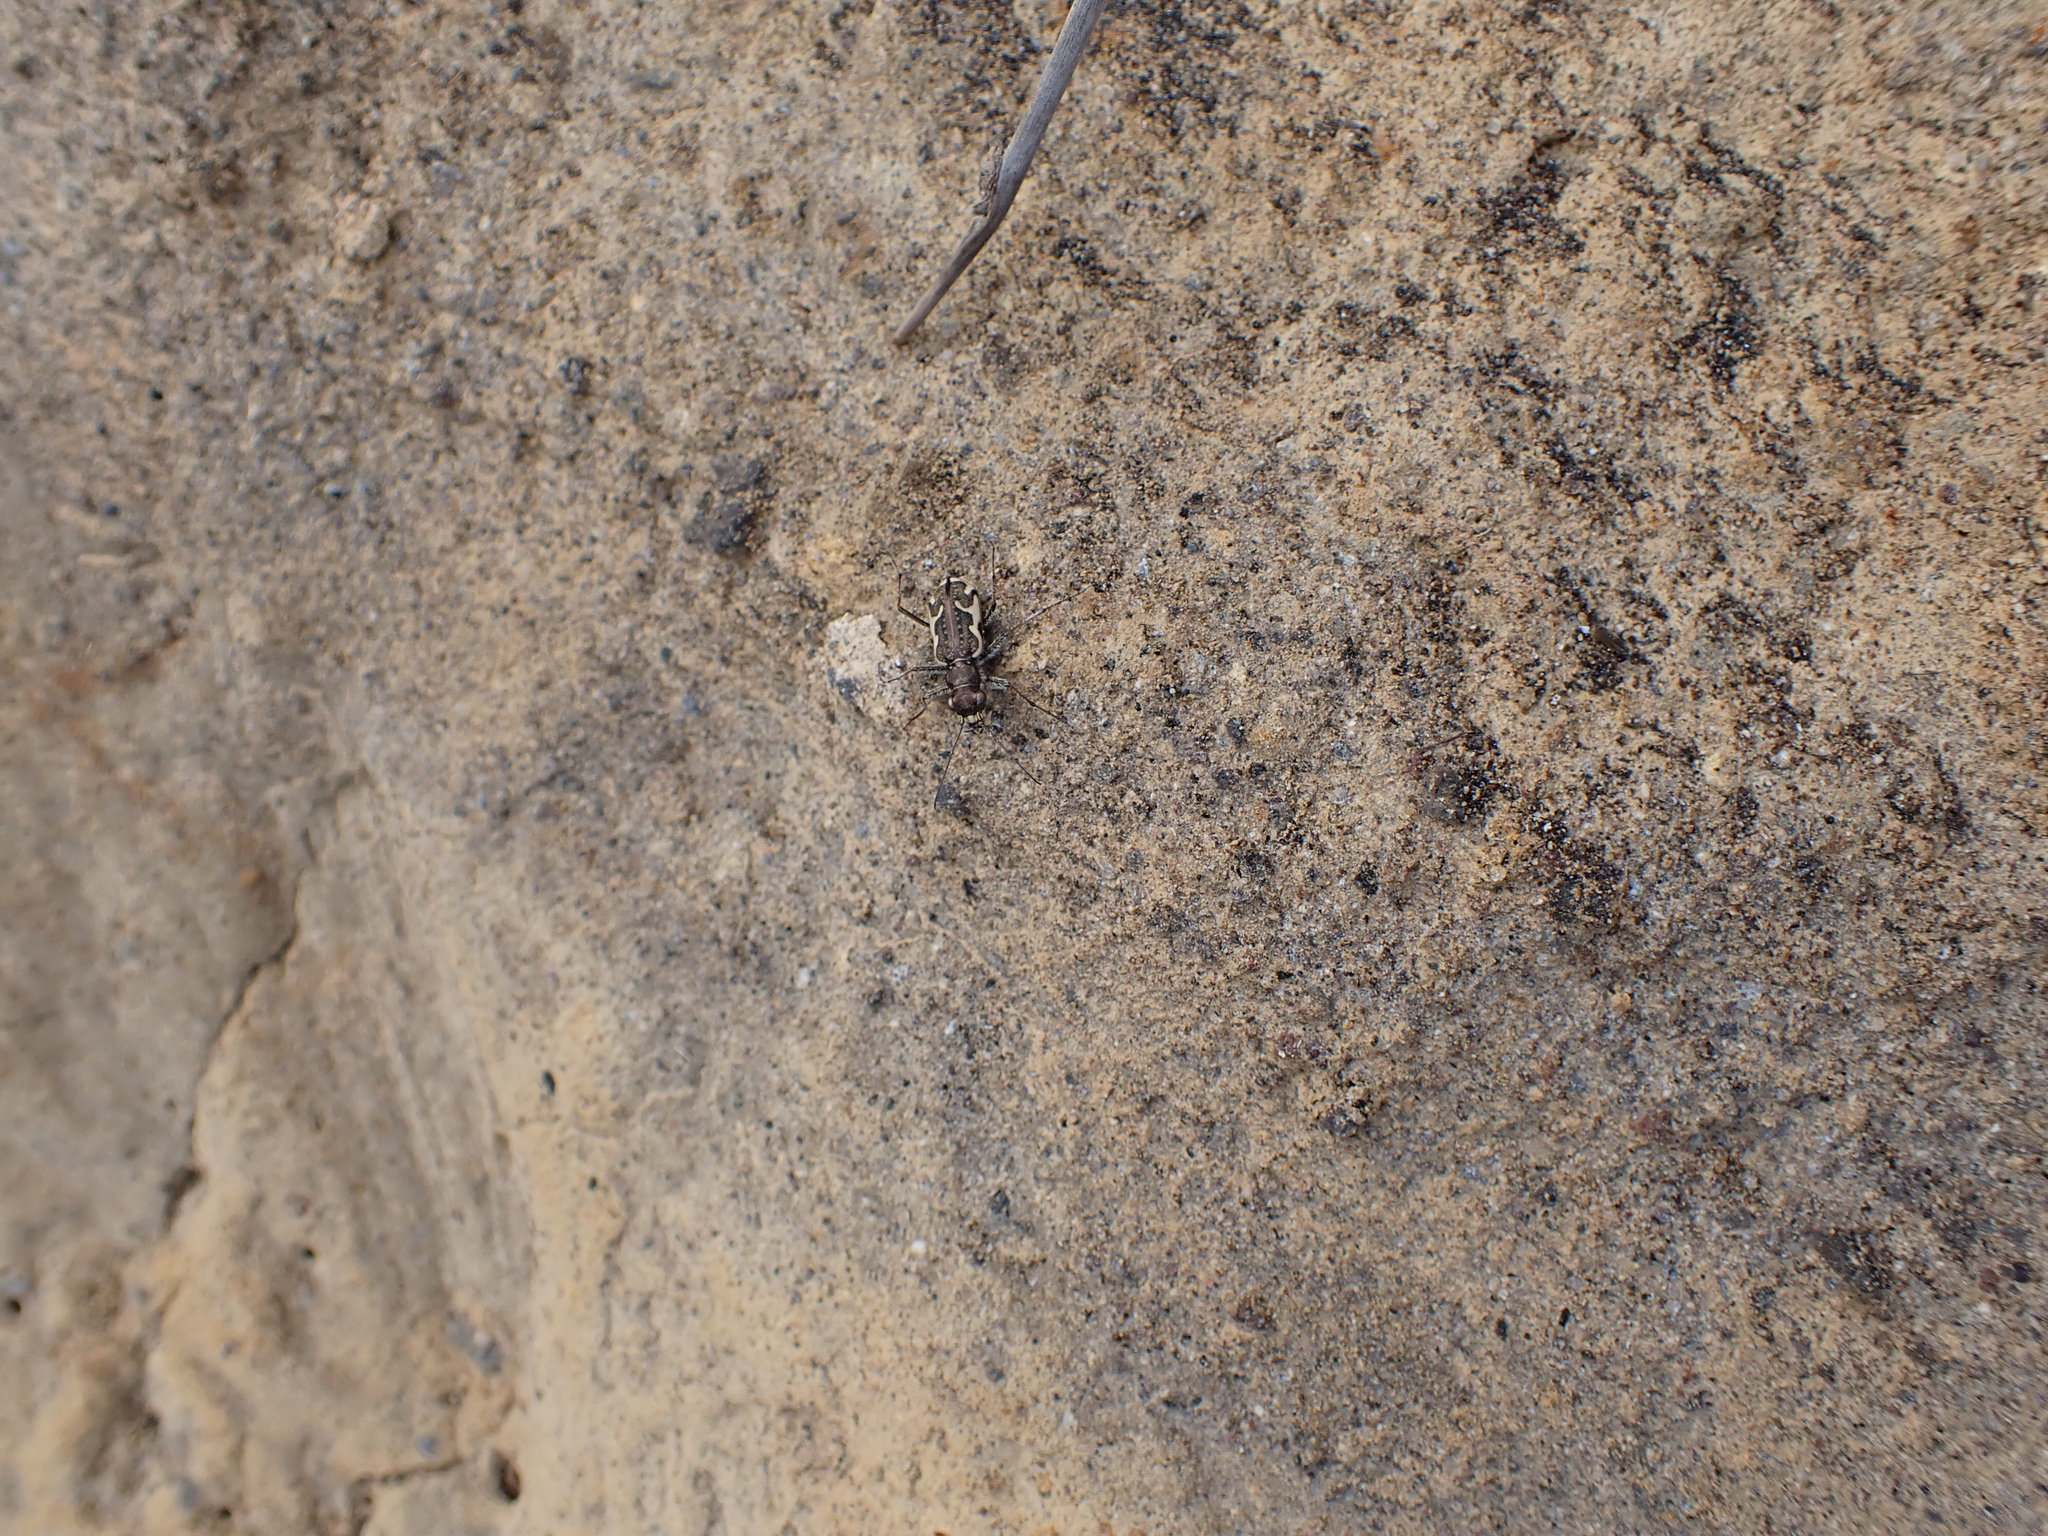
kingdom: Animalia
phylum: Arthropoda
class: Insecta
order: Coleoptera
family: Carabidae
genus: Neocicindela
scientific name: Neocicindela tuberculata
